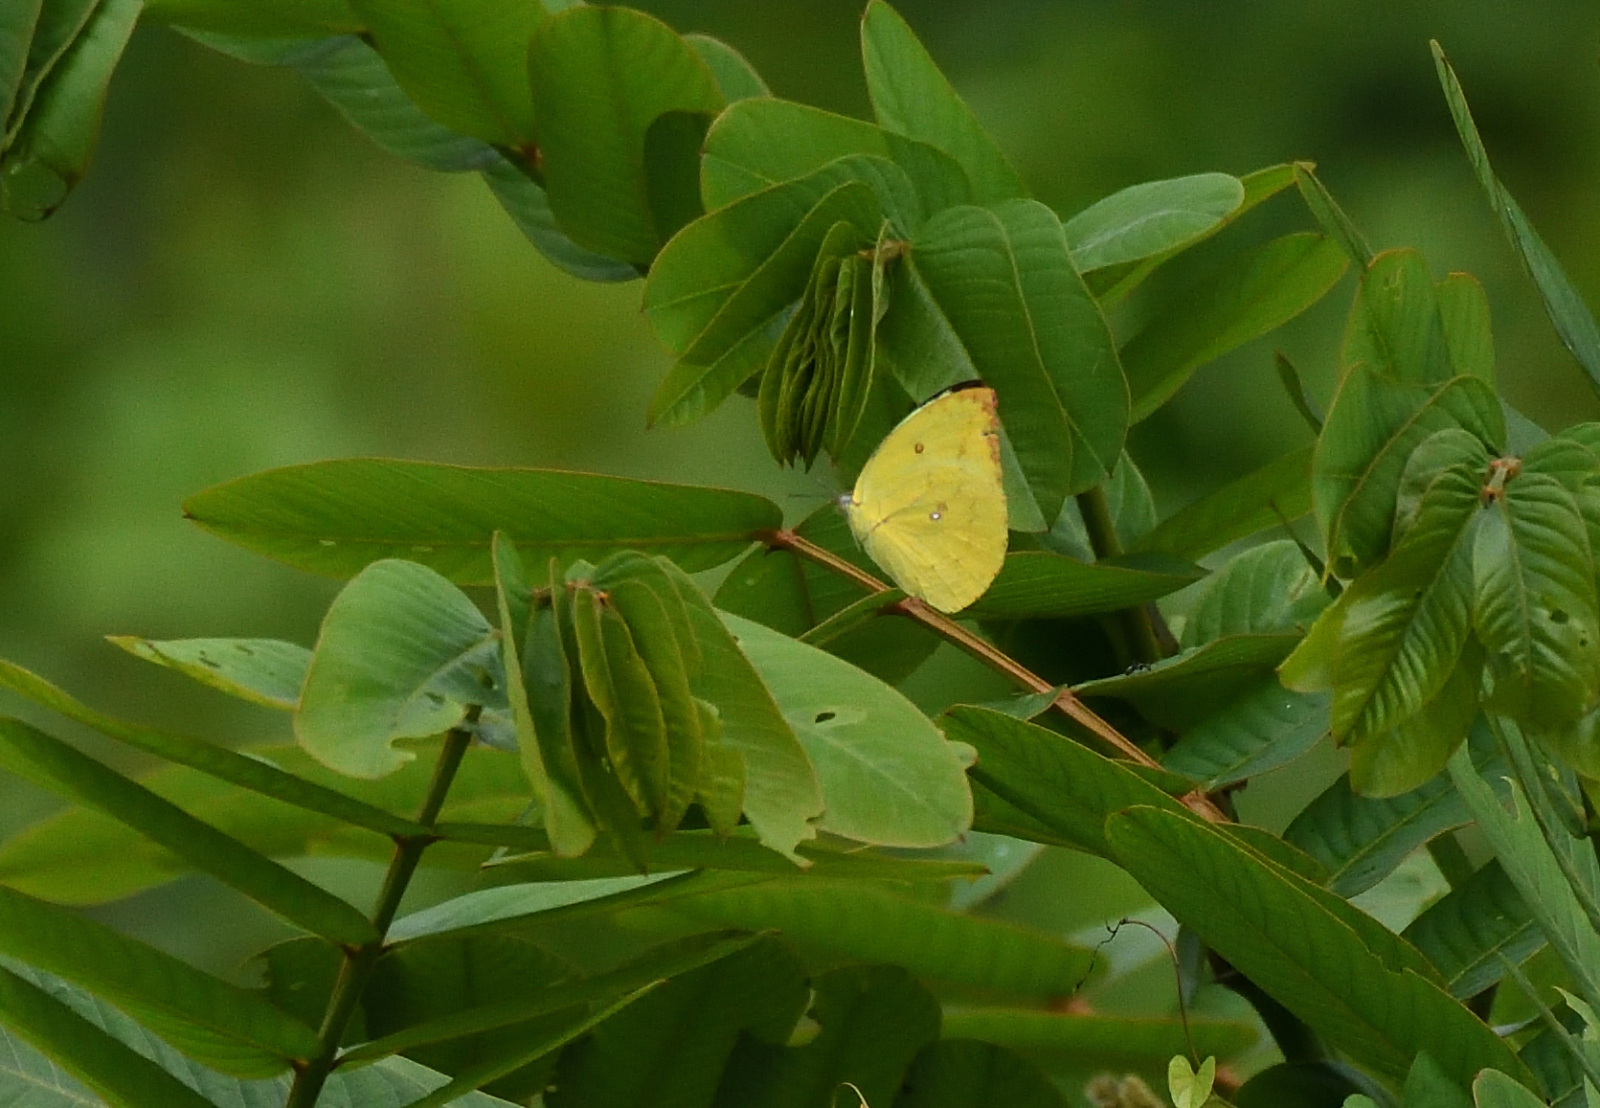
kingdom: Animalia
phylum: Arthropoda
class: Insecta
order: Lepidoptera
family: Pieridae
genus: Catopsilia
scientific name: Catopsilia pomona
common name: Common emigrant
